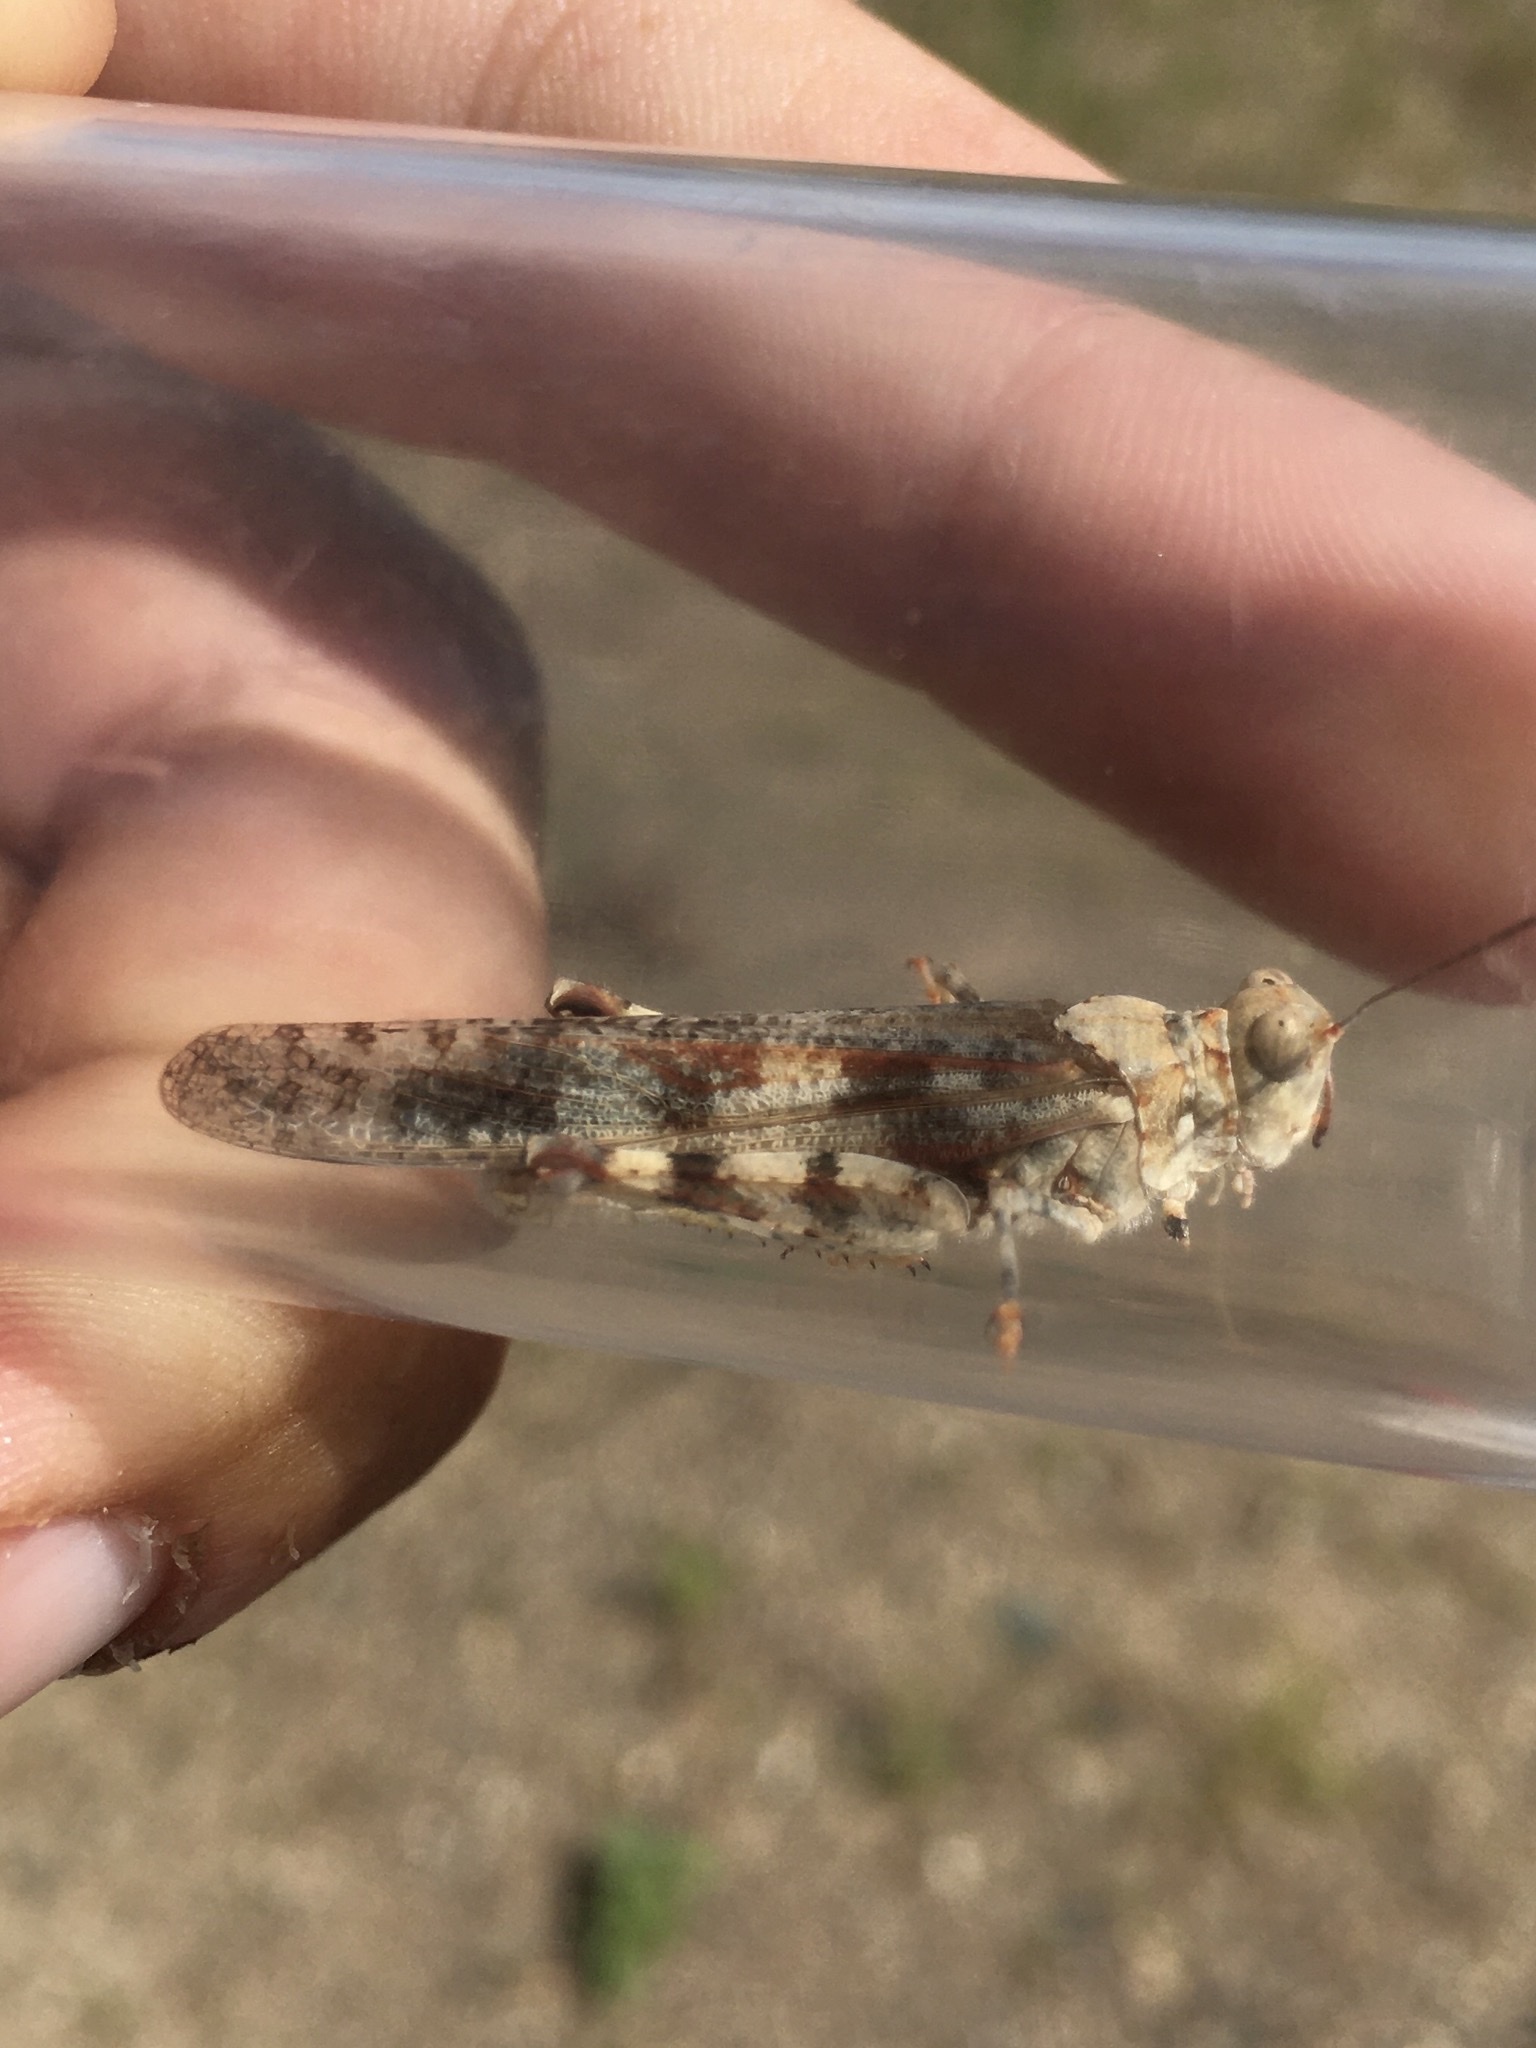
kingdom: Animalia
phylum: Arthropoda
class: Insecta
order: Orthoptera
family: Acrididae
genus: Trimerotropis
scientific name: Trimerotropis maritima
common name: Seaside locust
